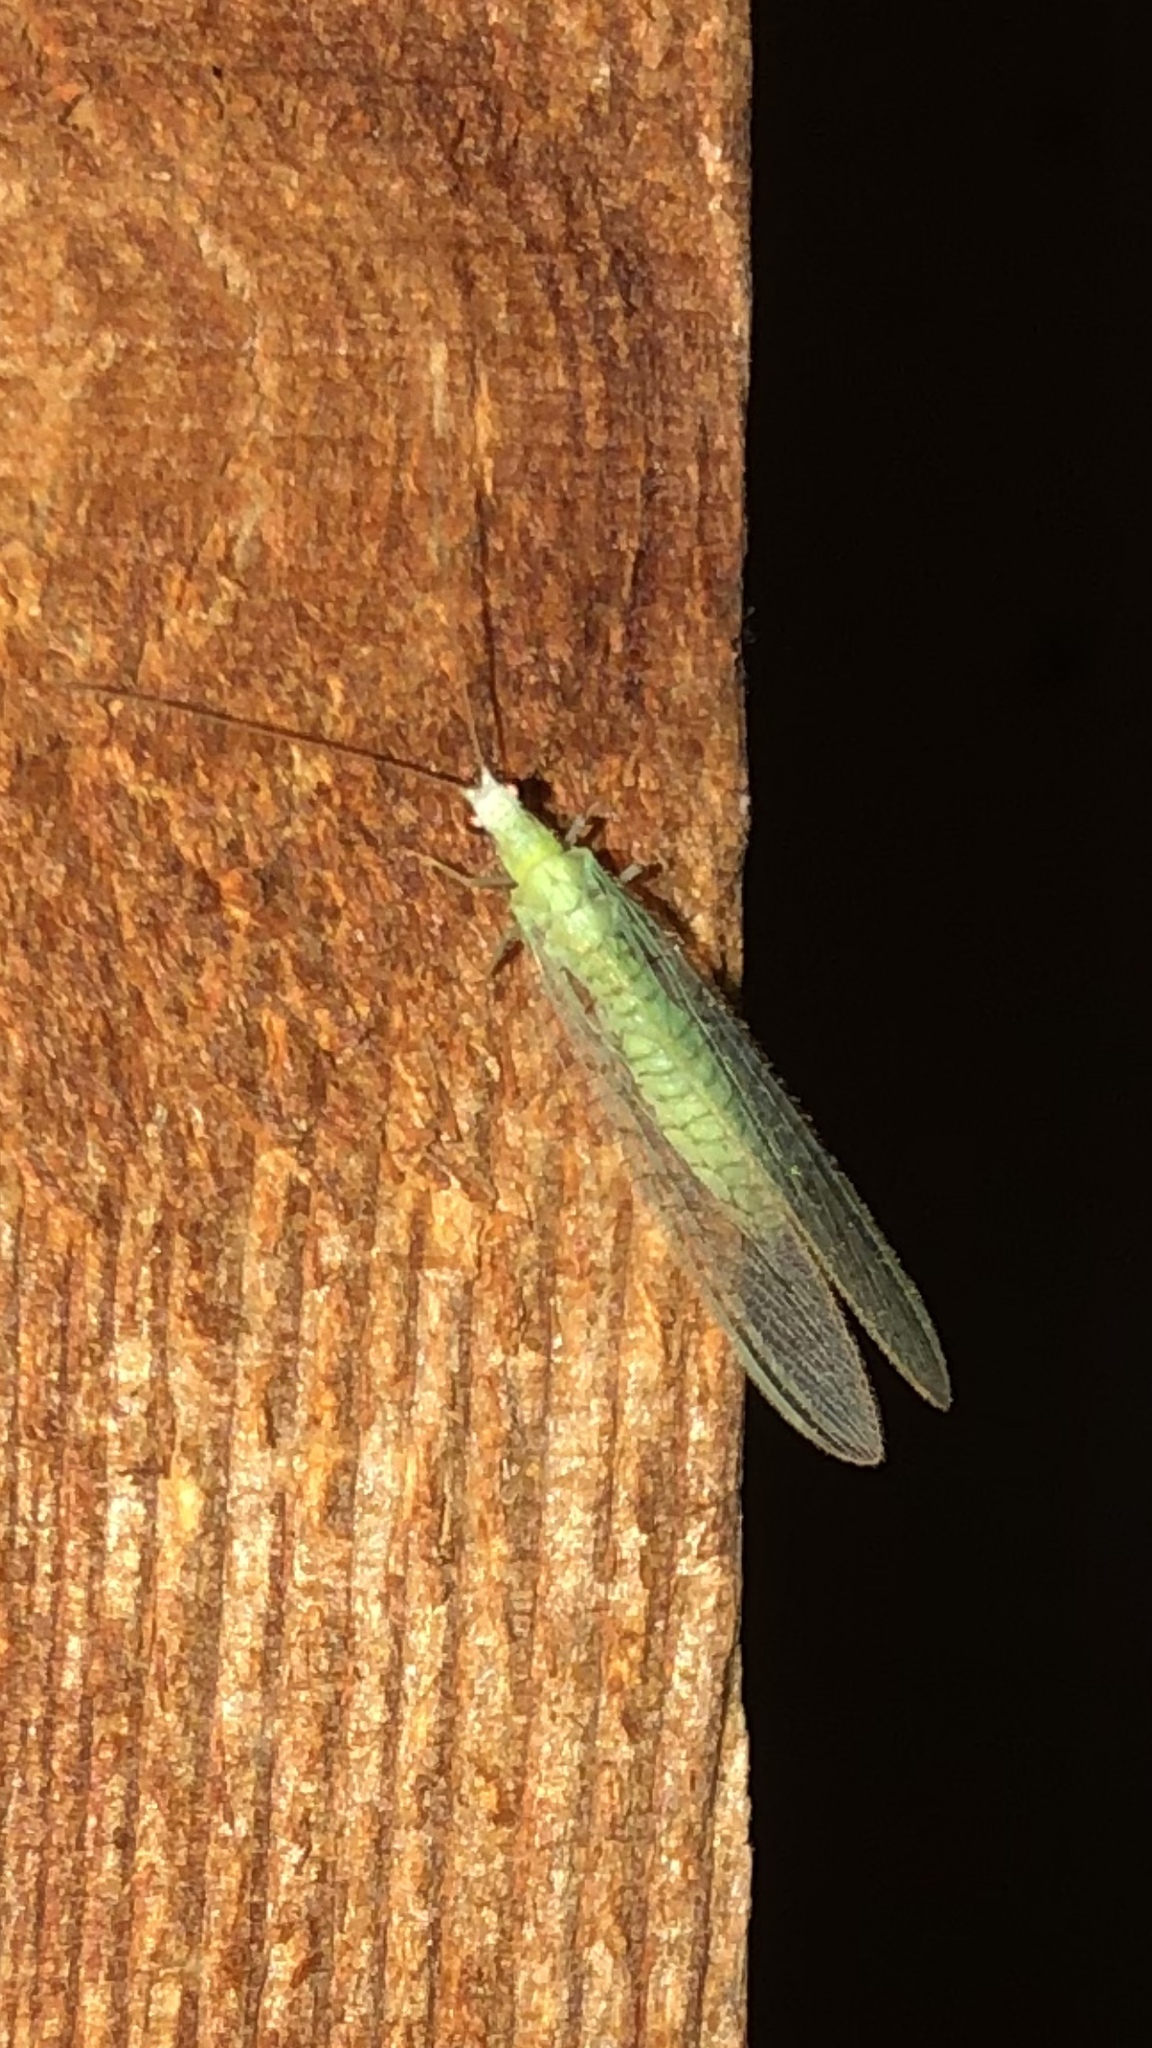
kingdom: Animalia
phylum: Arthropoda
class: Insecta
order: Neuroptera
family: Chrysopidae
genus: Chrysopa
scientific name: Chrysopa nigricornis
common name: Black-horned green lacewing
